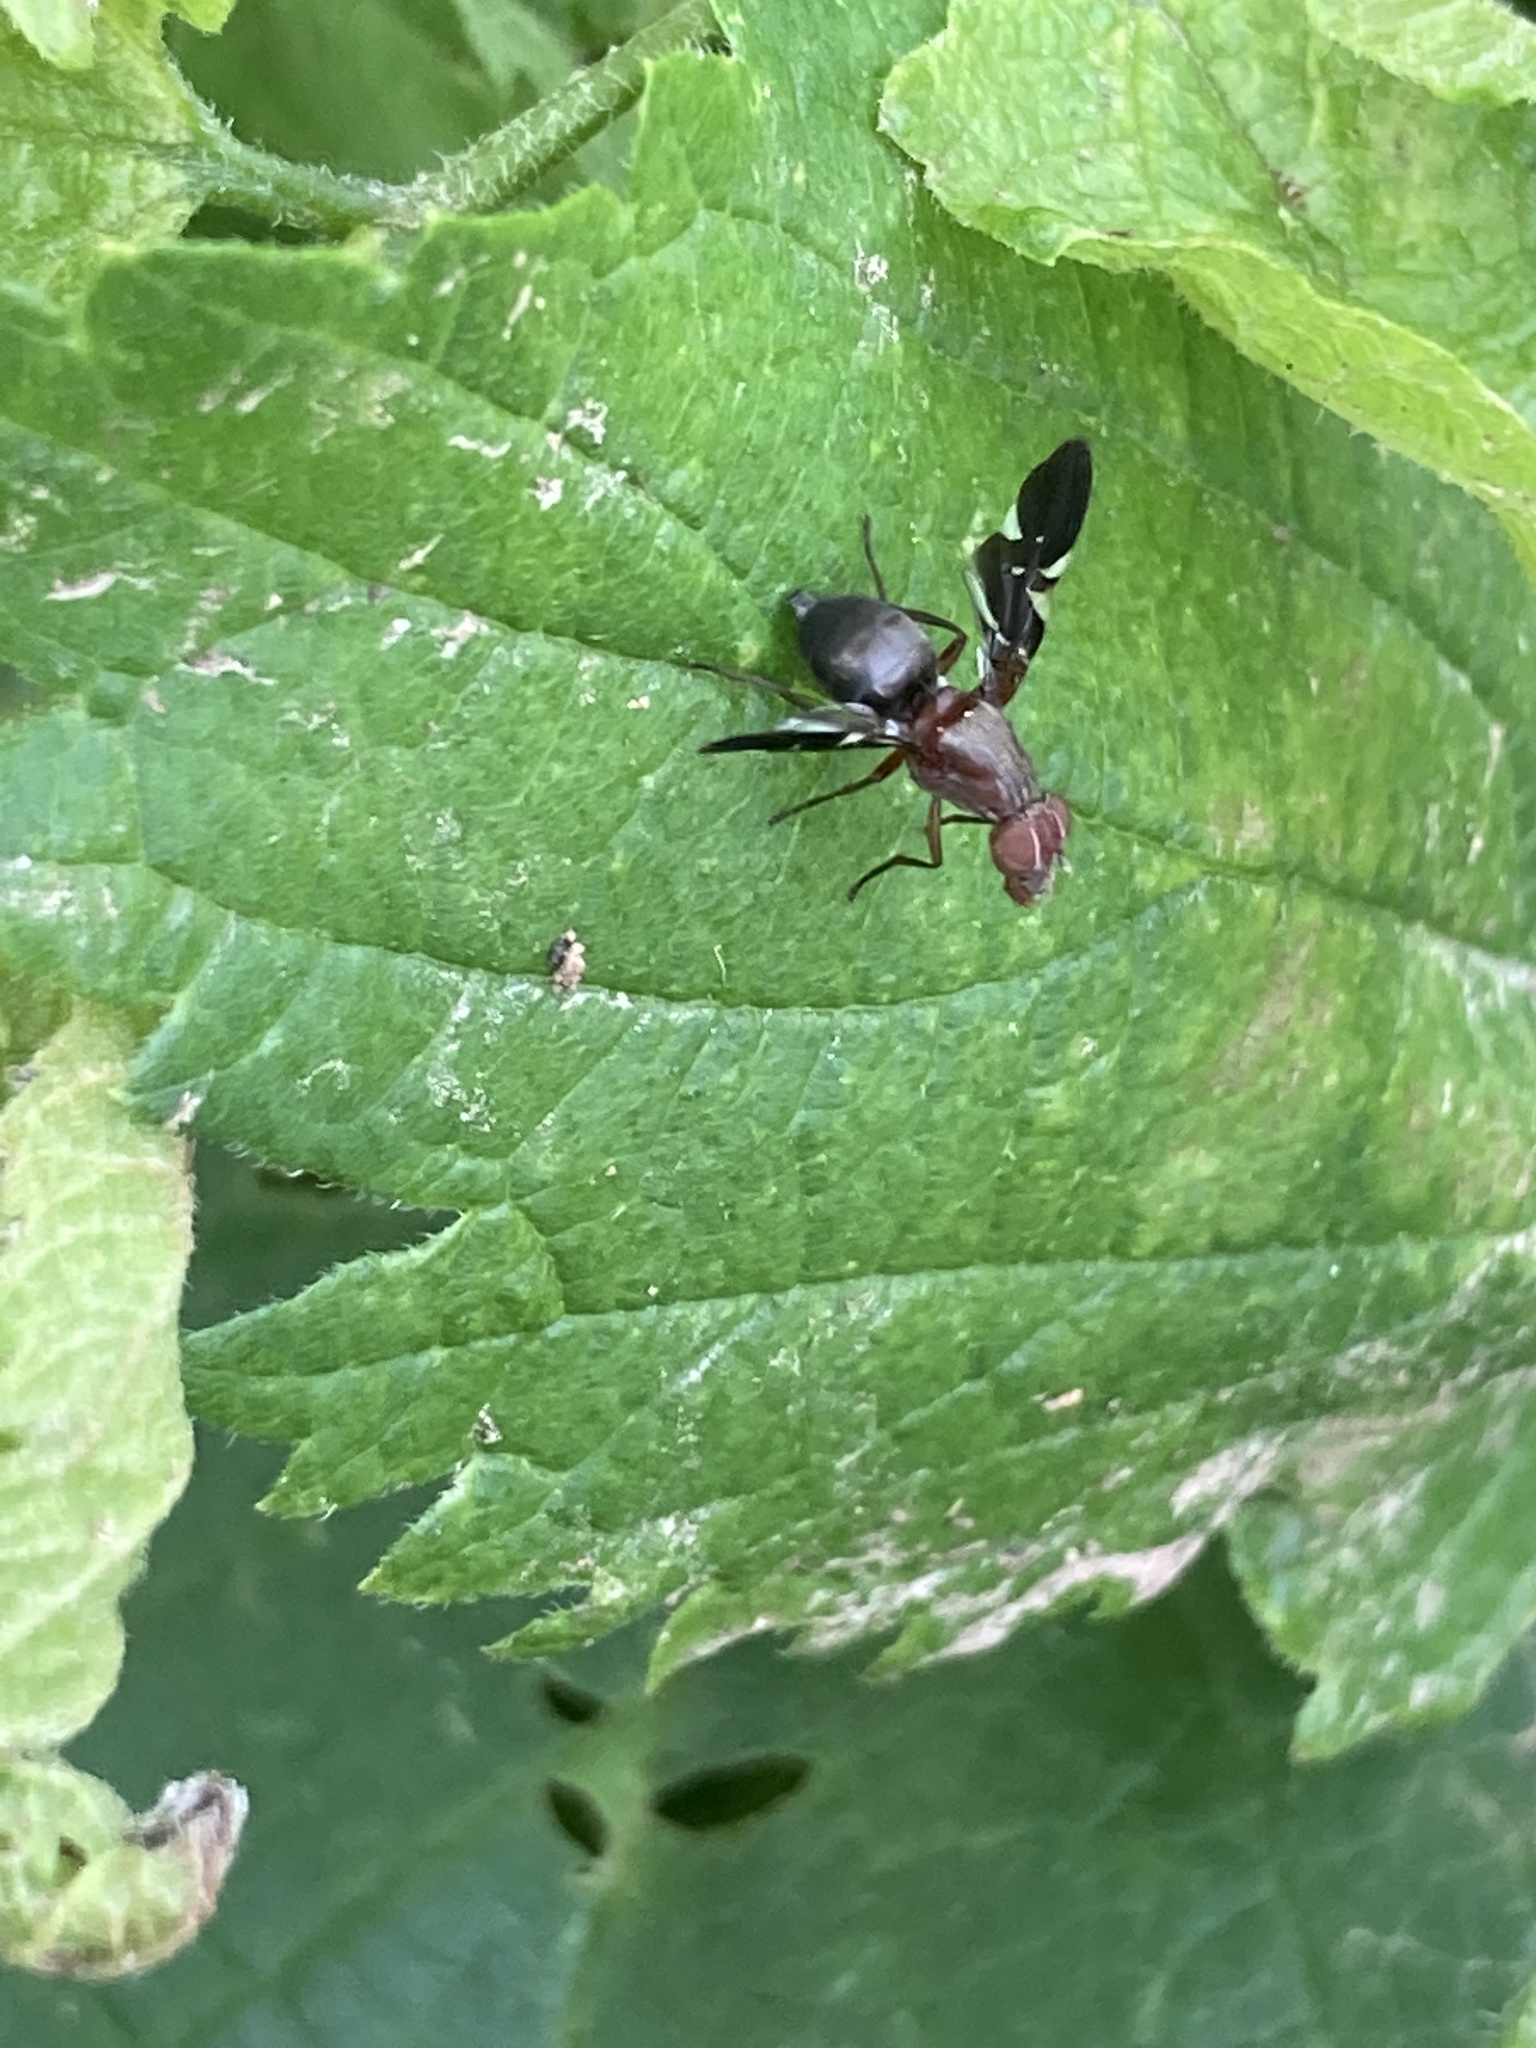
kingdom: Animalia
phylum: Arthropoda
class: Insecta
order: Diptera
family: Ulidiidae
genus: Delphinia
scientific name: Delphinia picta
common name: Common picture-winged fly
